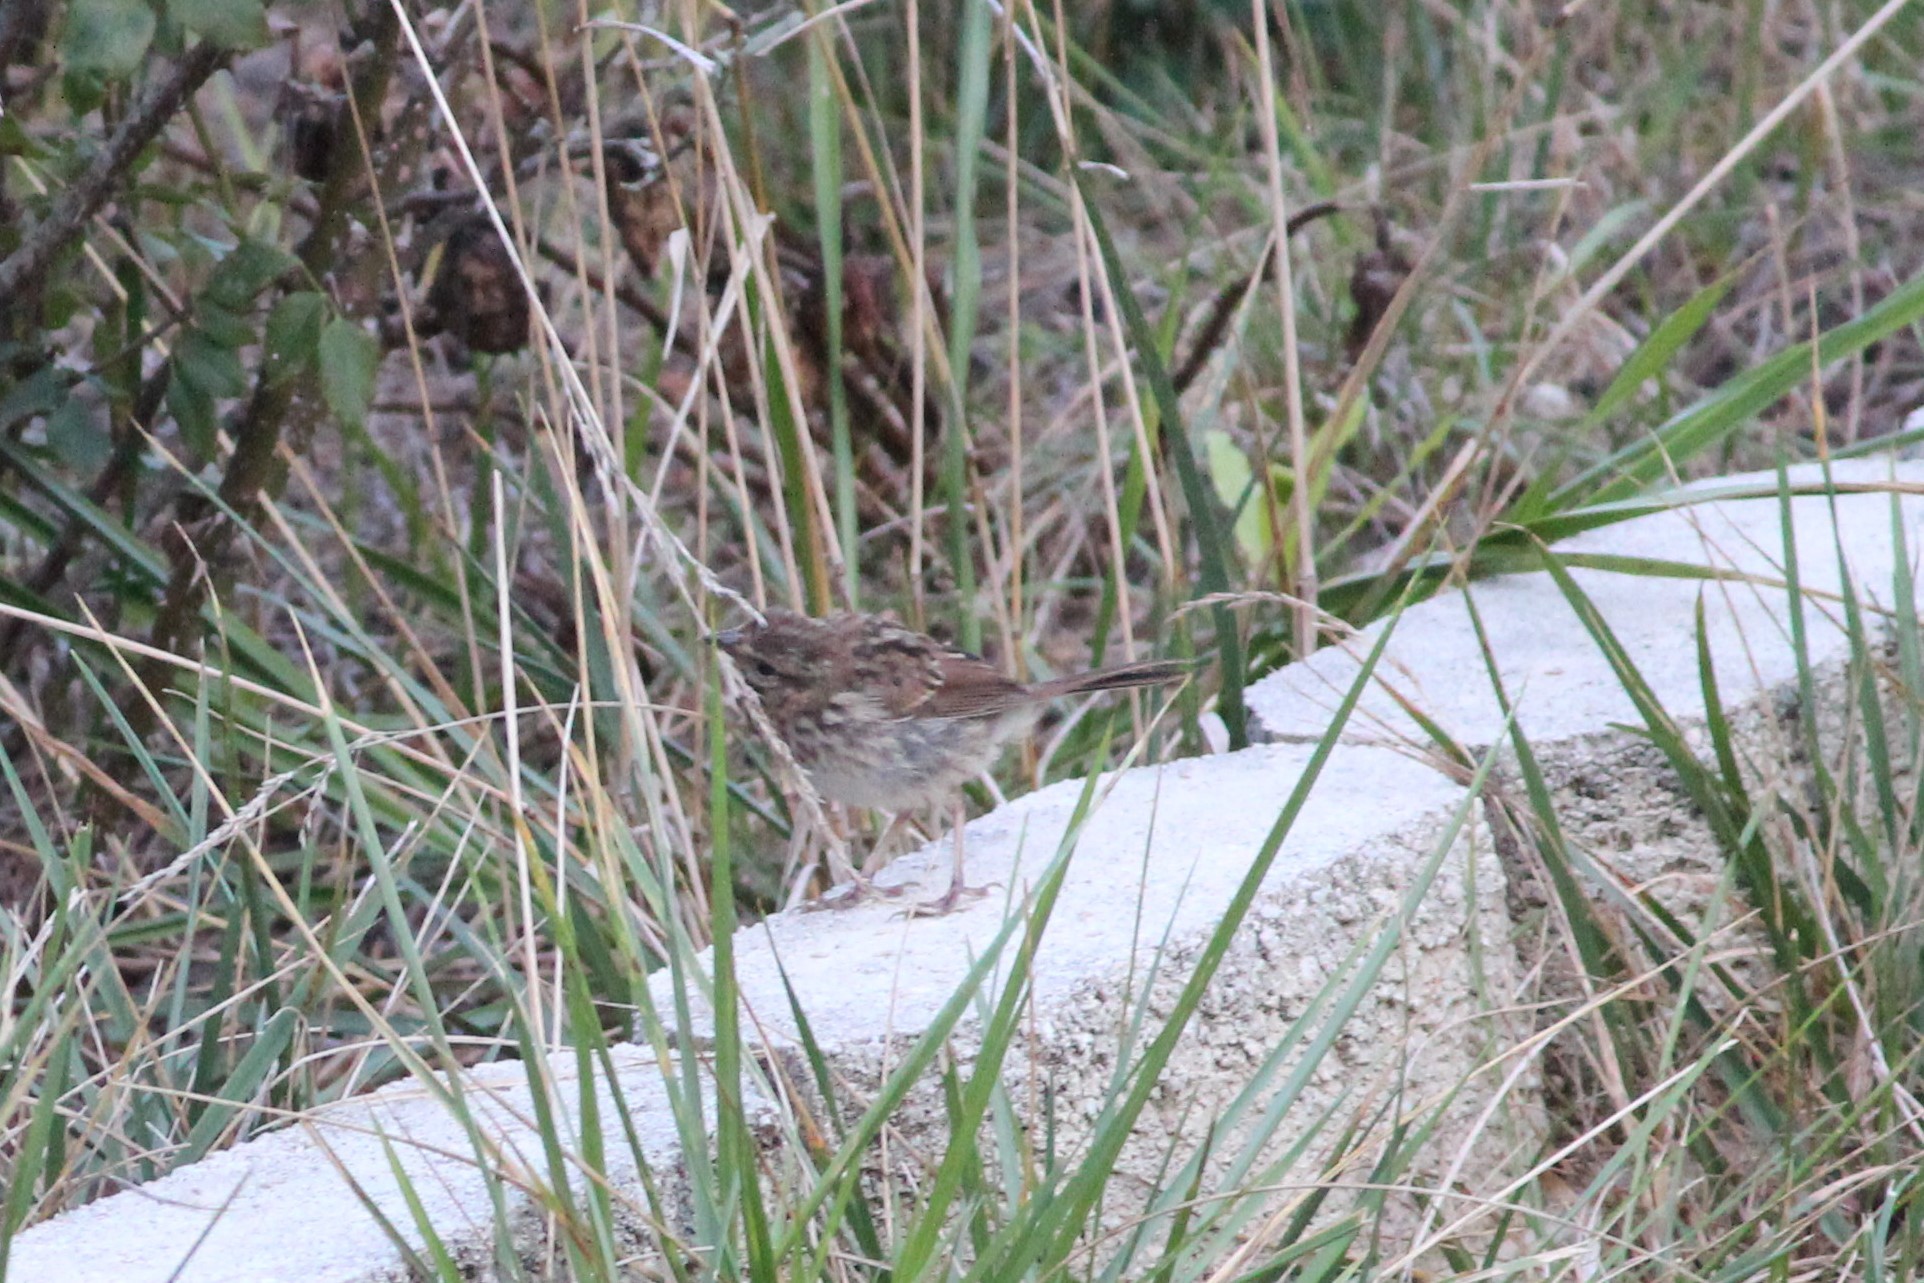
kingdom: Animalia
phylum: Chordata
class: Aves
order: Passeriformes
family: Passerellidae
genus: Melospiza
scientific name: Melospiza melodia
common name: Song sparrow
